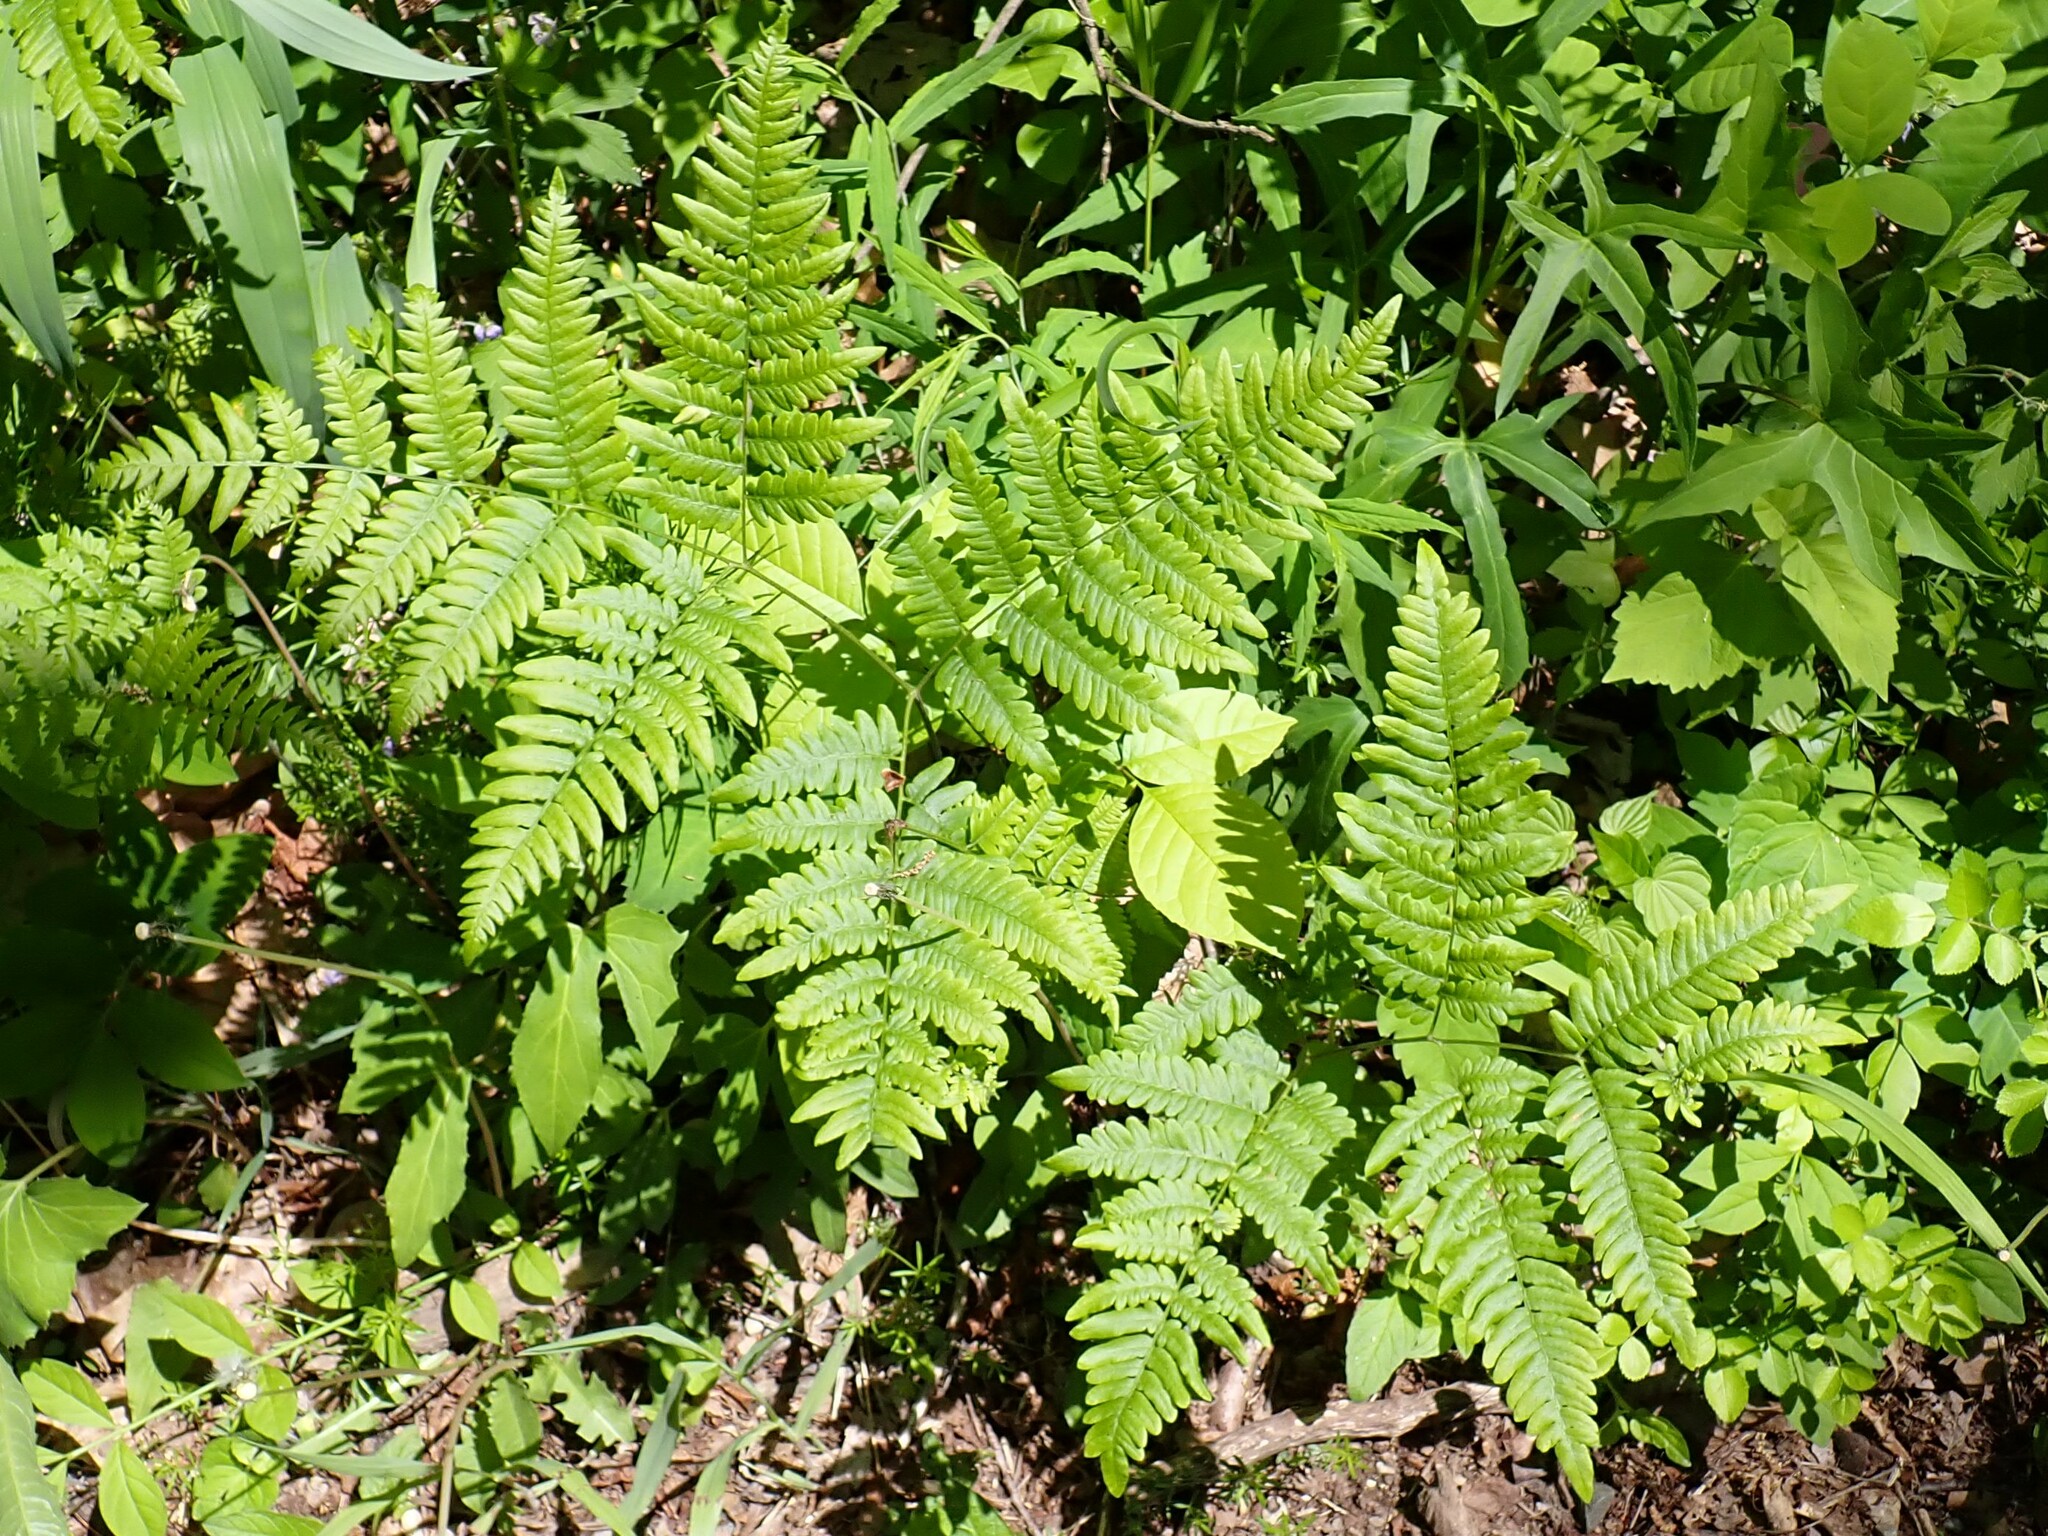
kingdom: Plantae
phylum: Tracheophyta
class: Polypodiopsida
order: Polypodiales
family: Dennstaedtiaceae
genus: Pteridium
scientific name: Pteridium aquilinum
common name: Bracken
